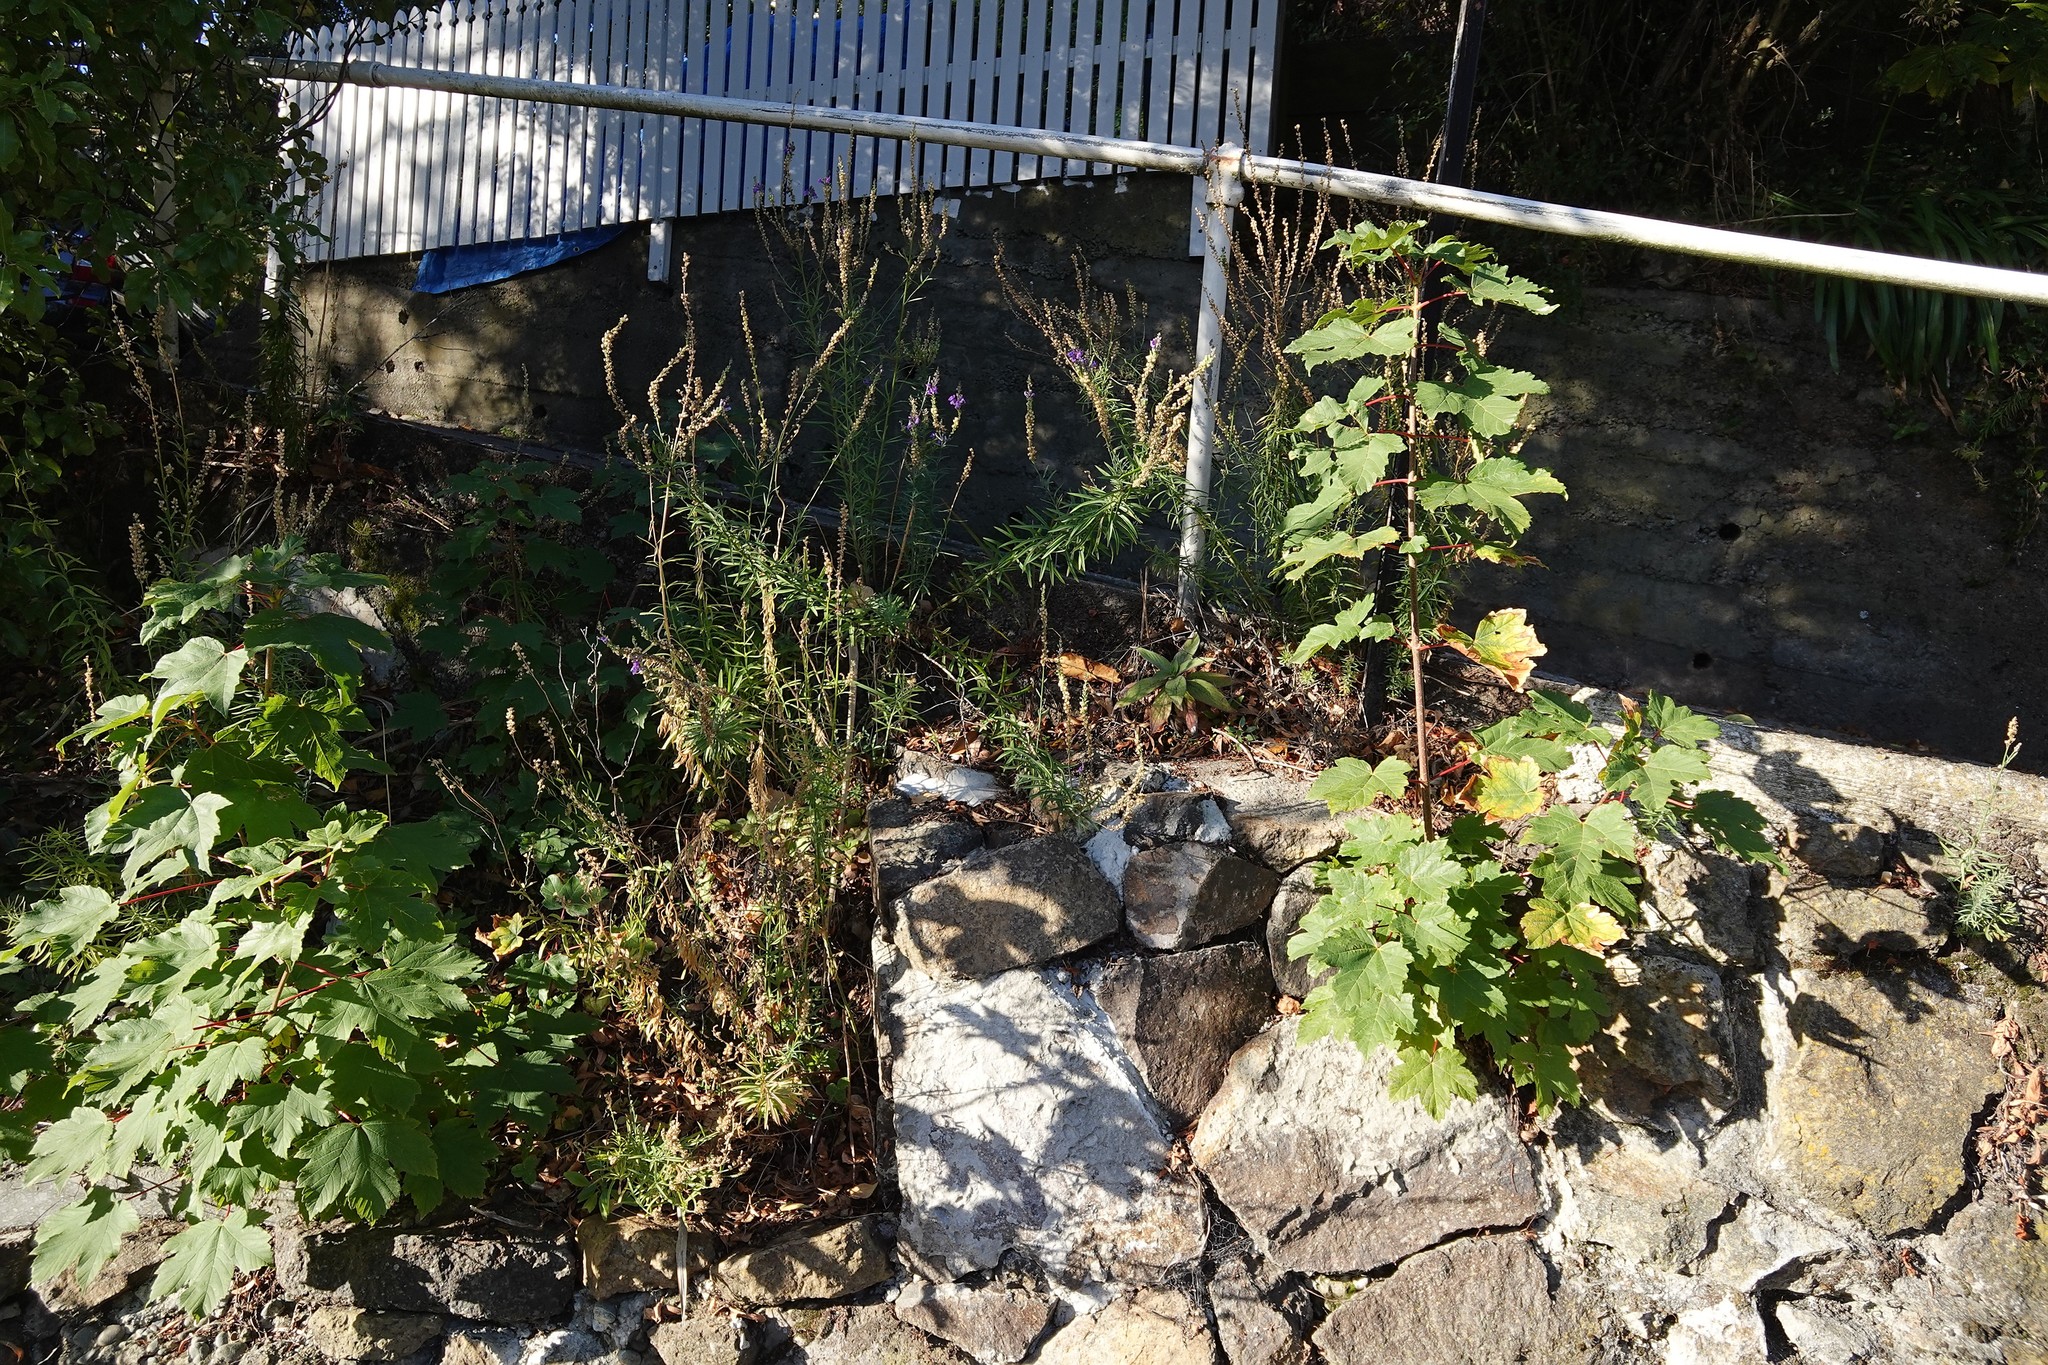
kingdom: Plantae
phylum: Tracheophyta
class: Magnoliopsida
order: Sapindales
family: Sapindaceae
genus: Acer
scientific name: Acer pseudoplatanus
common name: Sycamore
